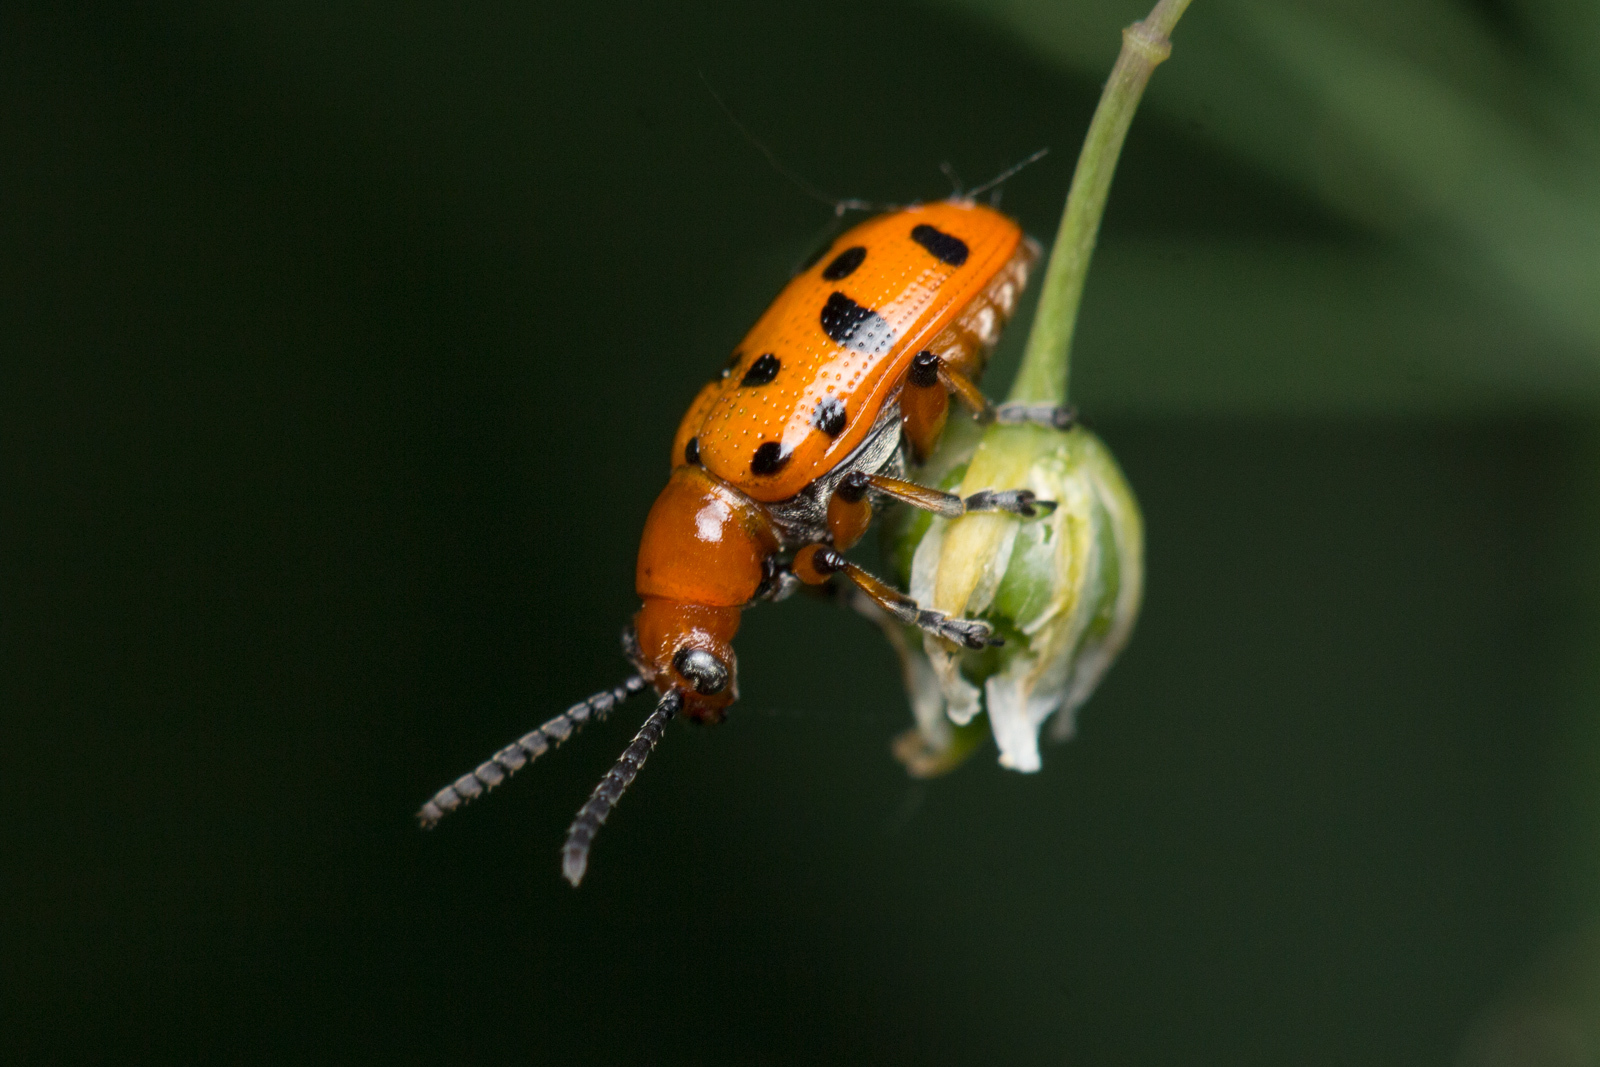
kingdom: Animalia
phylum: Arthropoda
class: Insecta
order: Coleoptera
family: Chrysomelidae
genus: Crioceris
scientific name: Crioceris duodecimpunctata
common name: Twelve-spotted asparagus beetle
